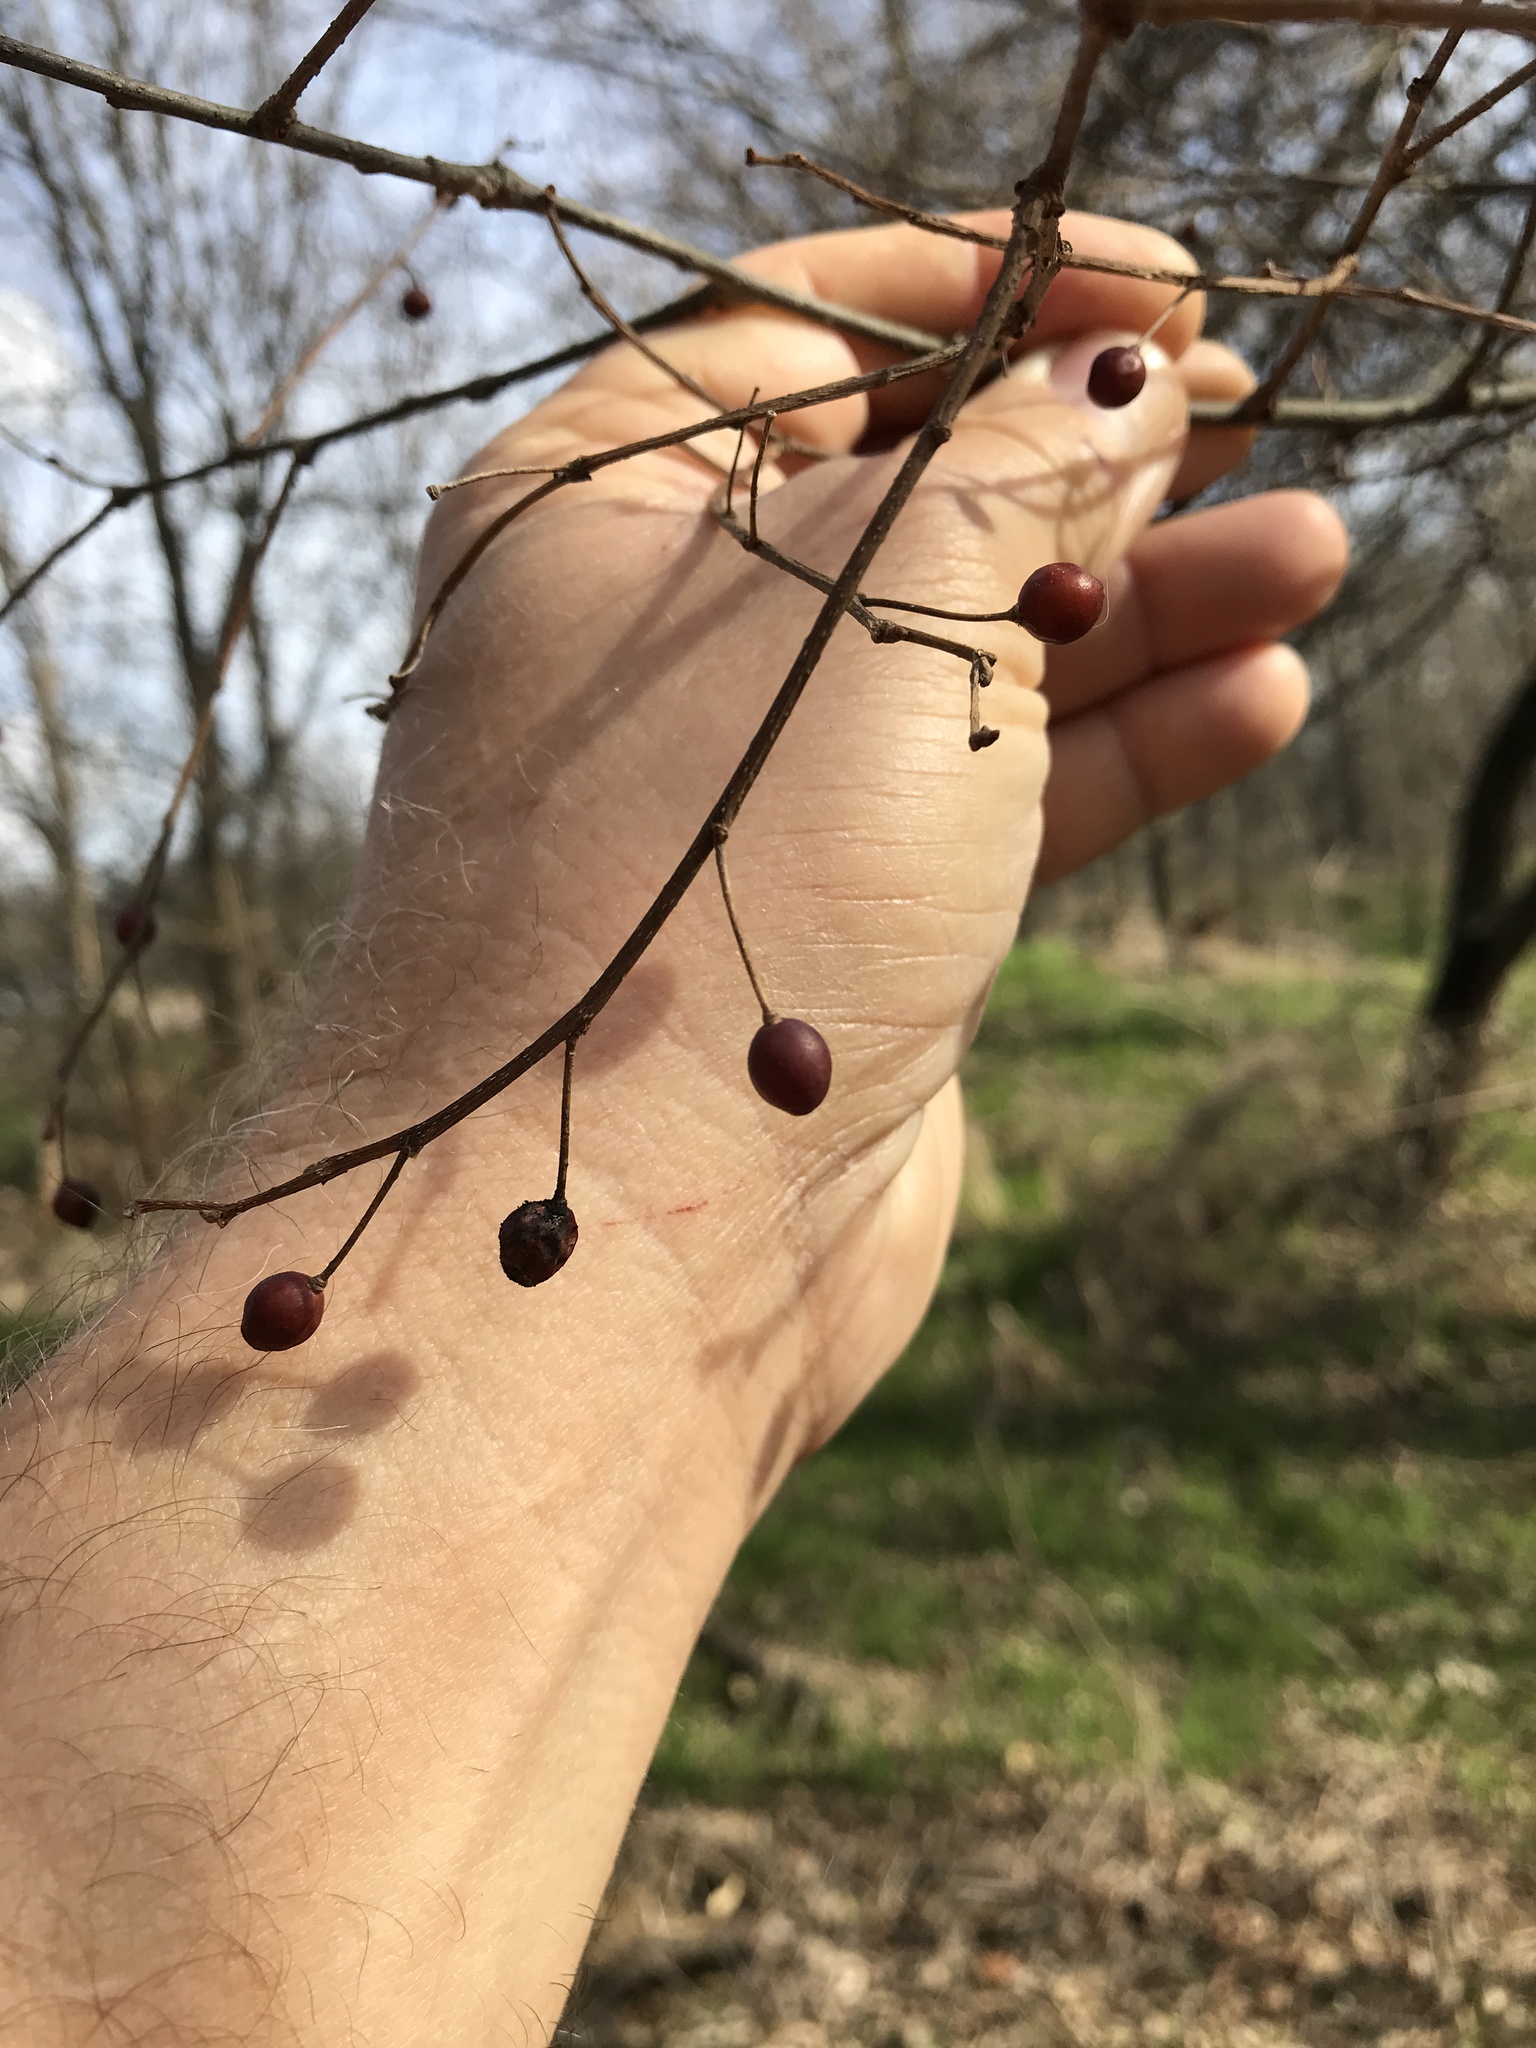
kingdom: Plantae
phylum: Tracheophyta
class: Magnoliopsida
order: Rosales
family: Cannabaceae
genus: Celtis
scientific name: Celtis laevigata
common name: Sugarberry
